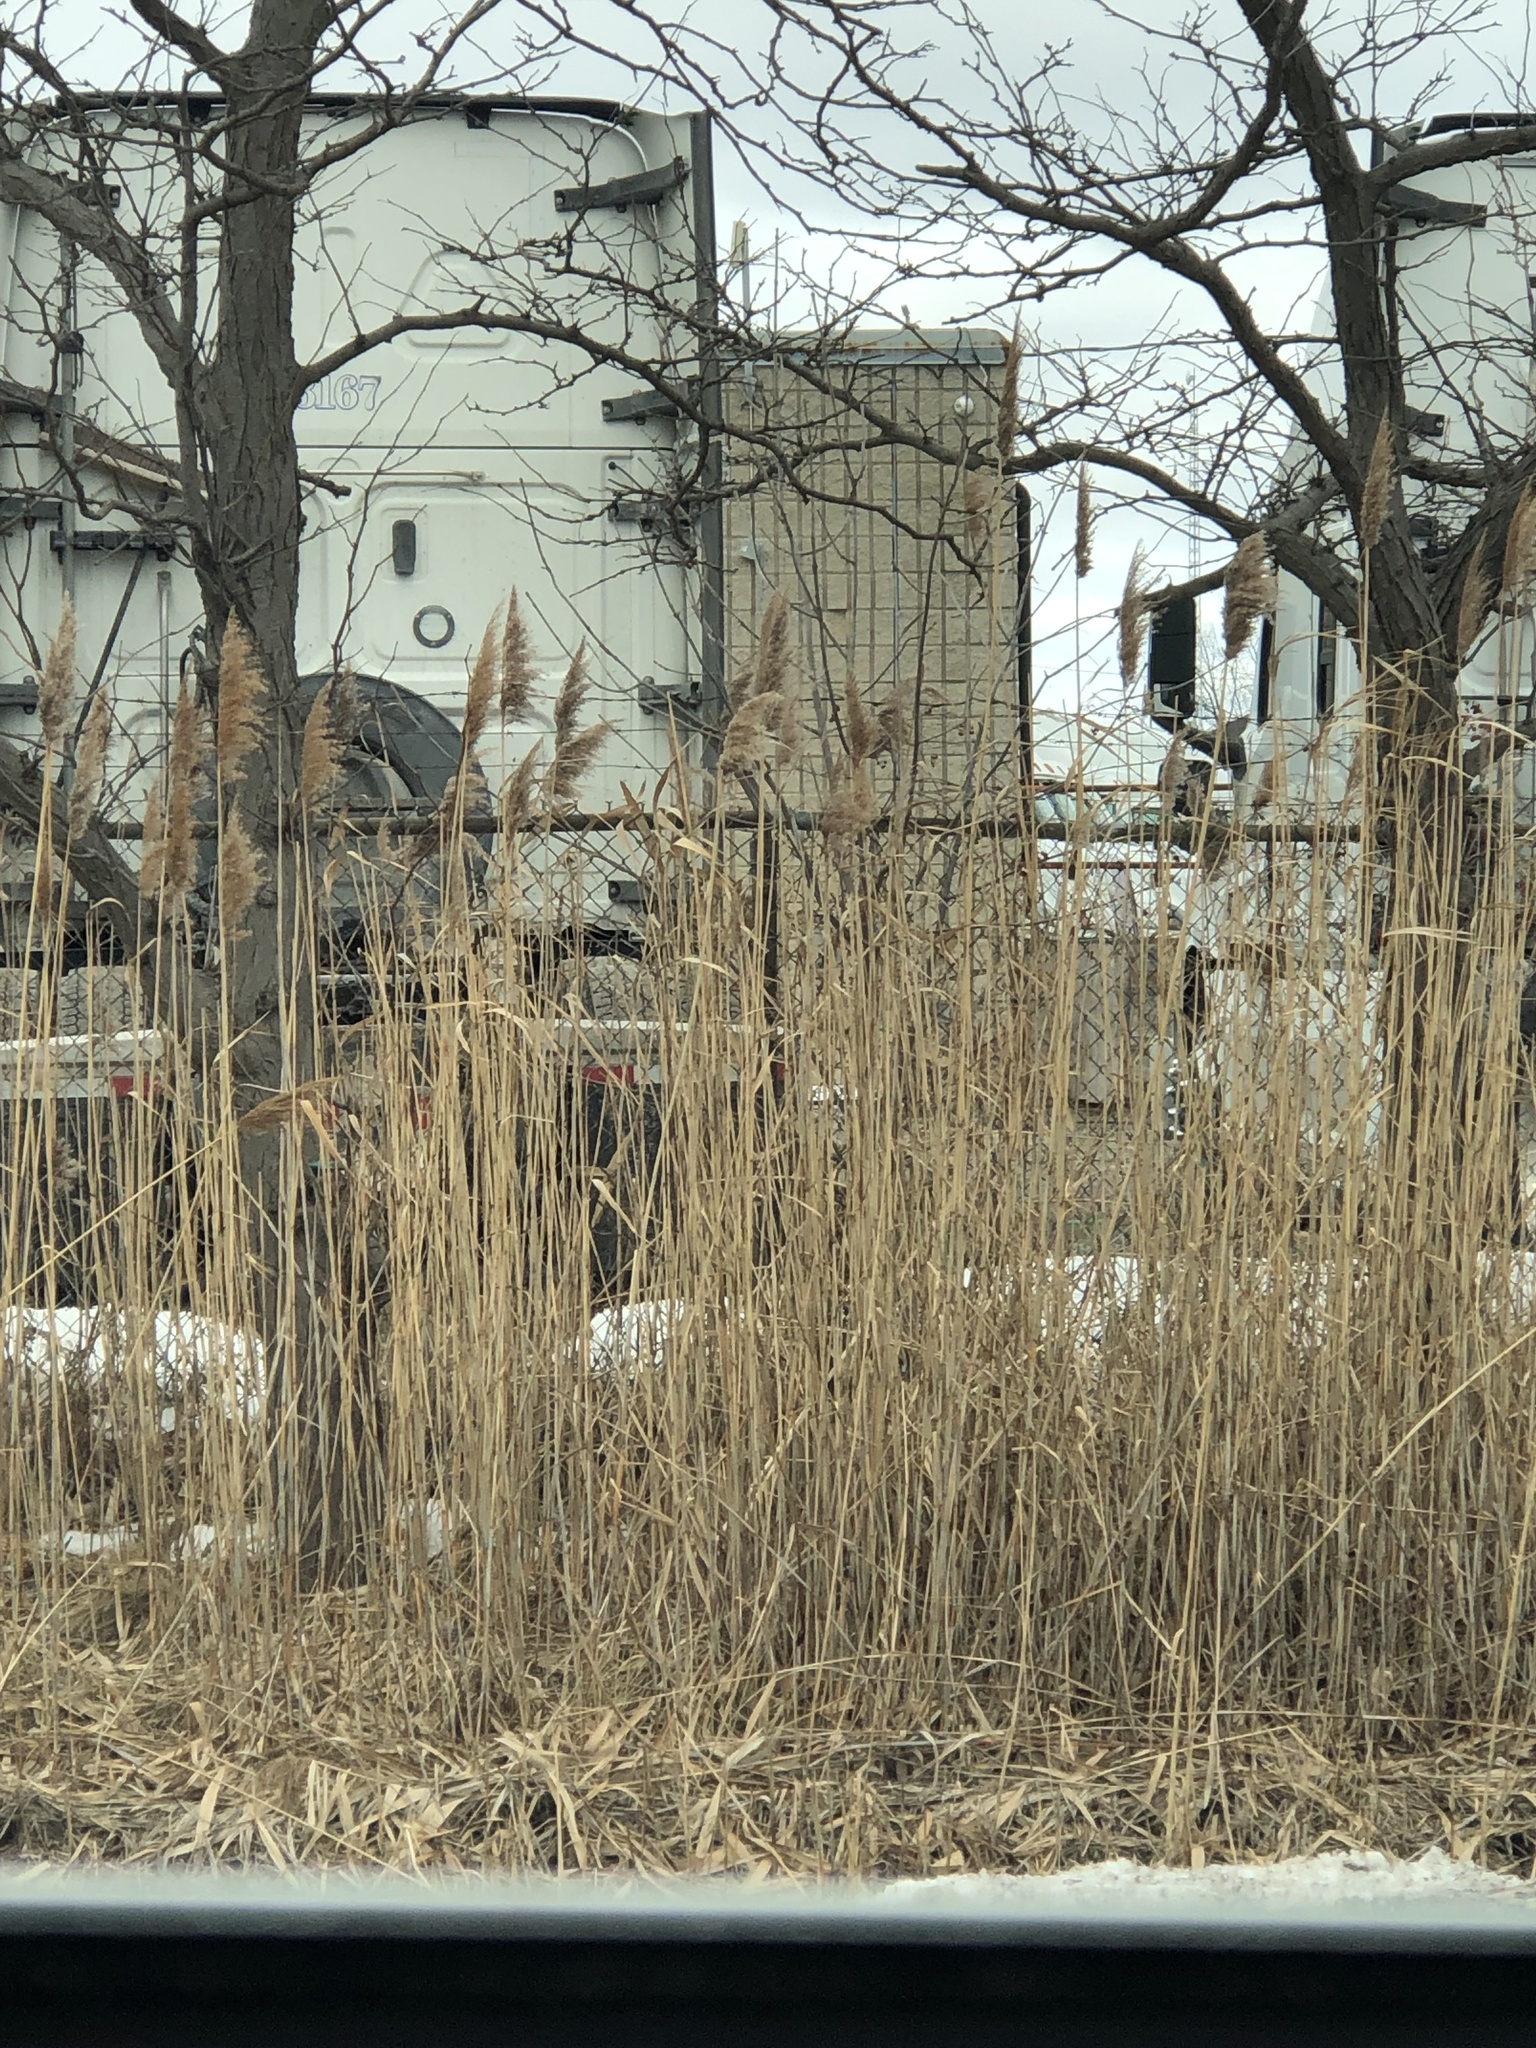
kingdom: Plantae
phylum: Tracheophyta
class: Liliopsida
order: Poales
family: Poaceae
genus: Phragmites
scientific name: Phragmites australis
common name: Common reed
